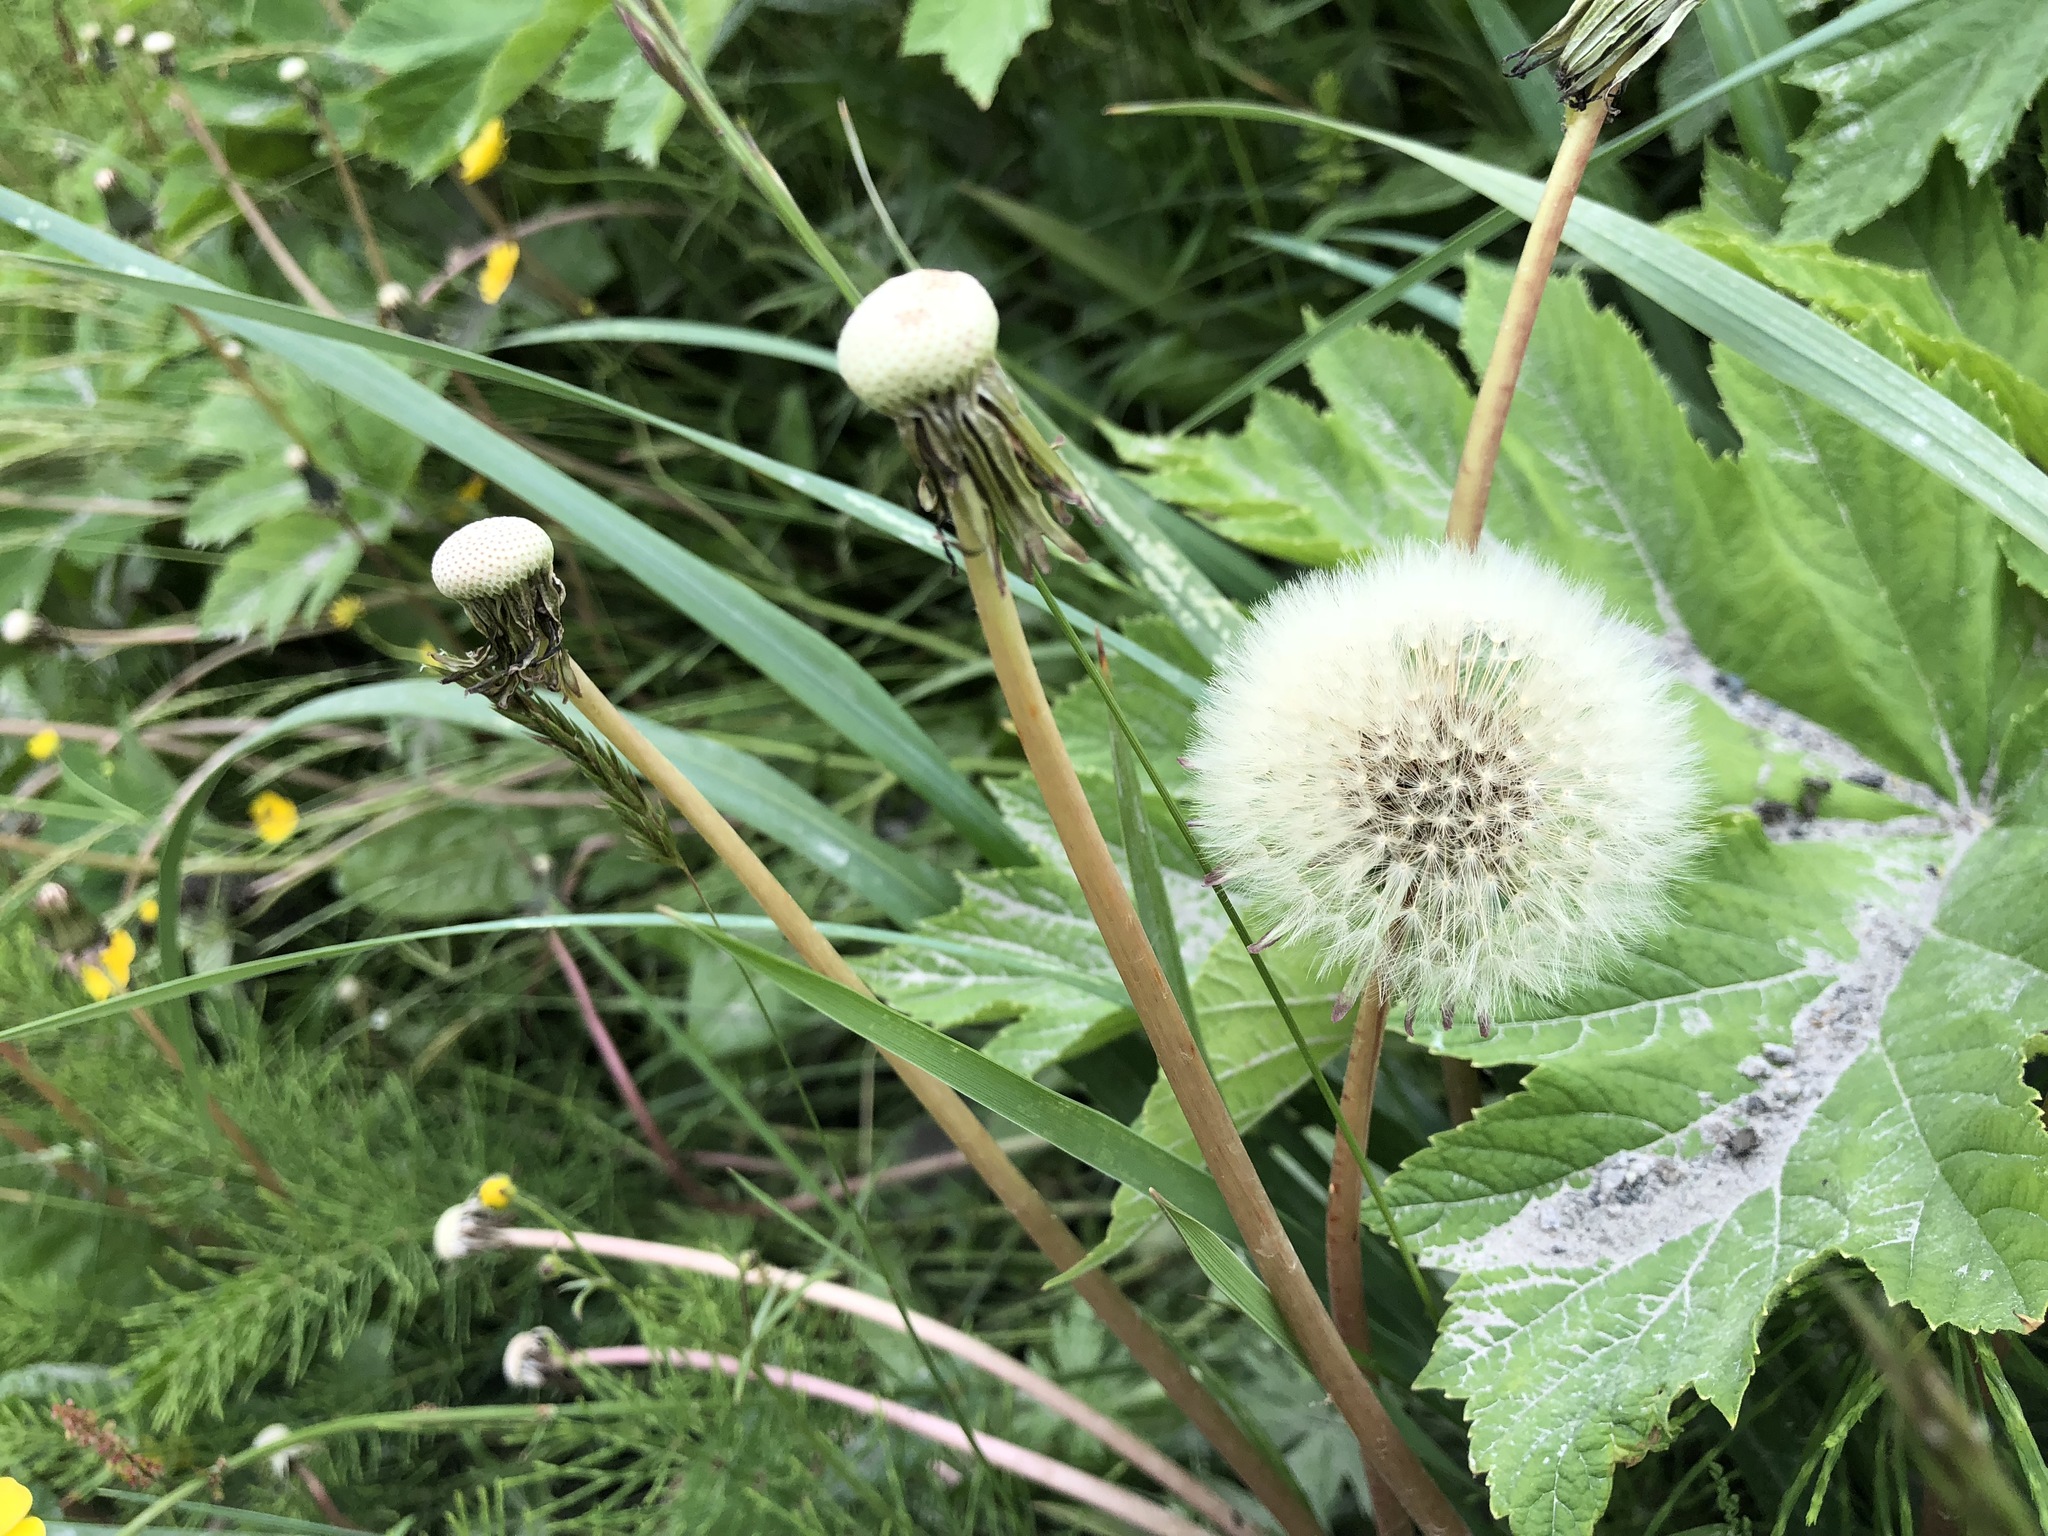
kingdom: Plantae
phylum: Tracheophyta
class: Magnoliopsida
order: Asterales
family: Asteraceae
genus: Taraxacum
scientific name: Taraxacum officinale
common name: Common dandelion
